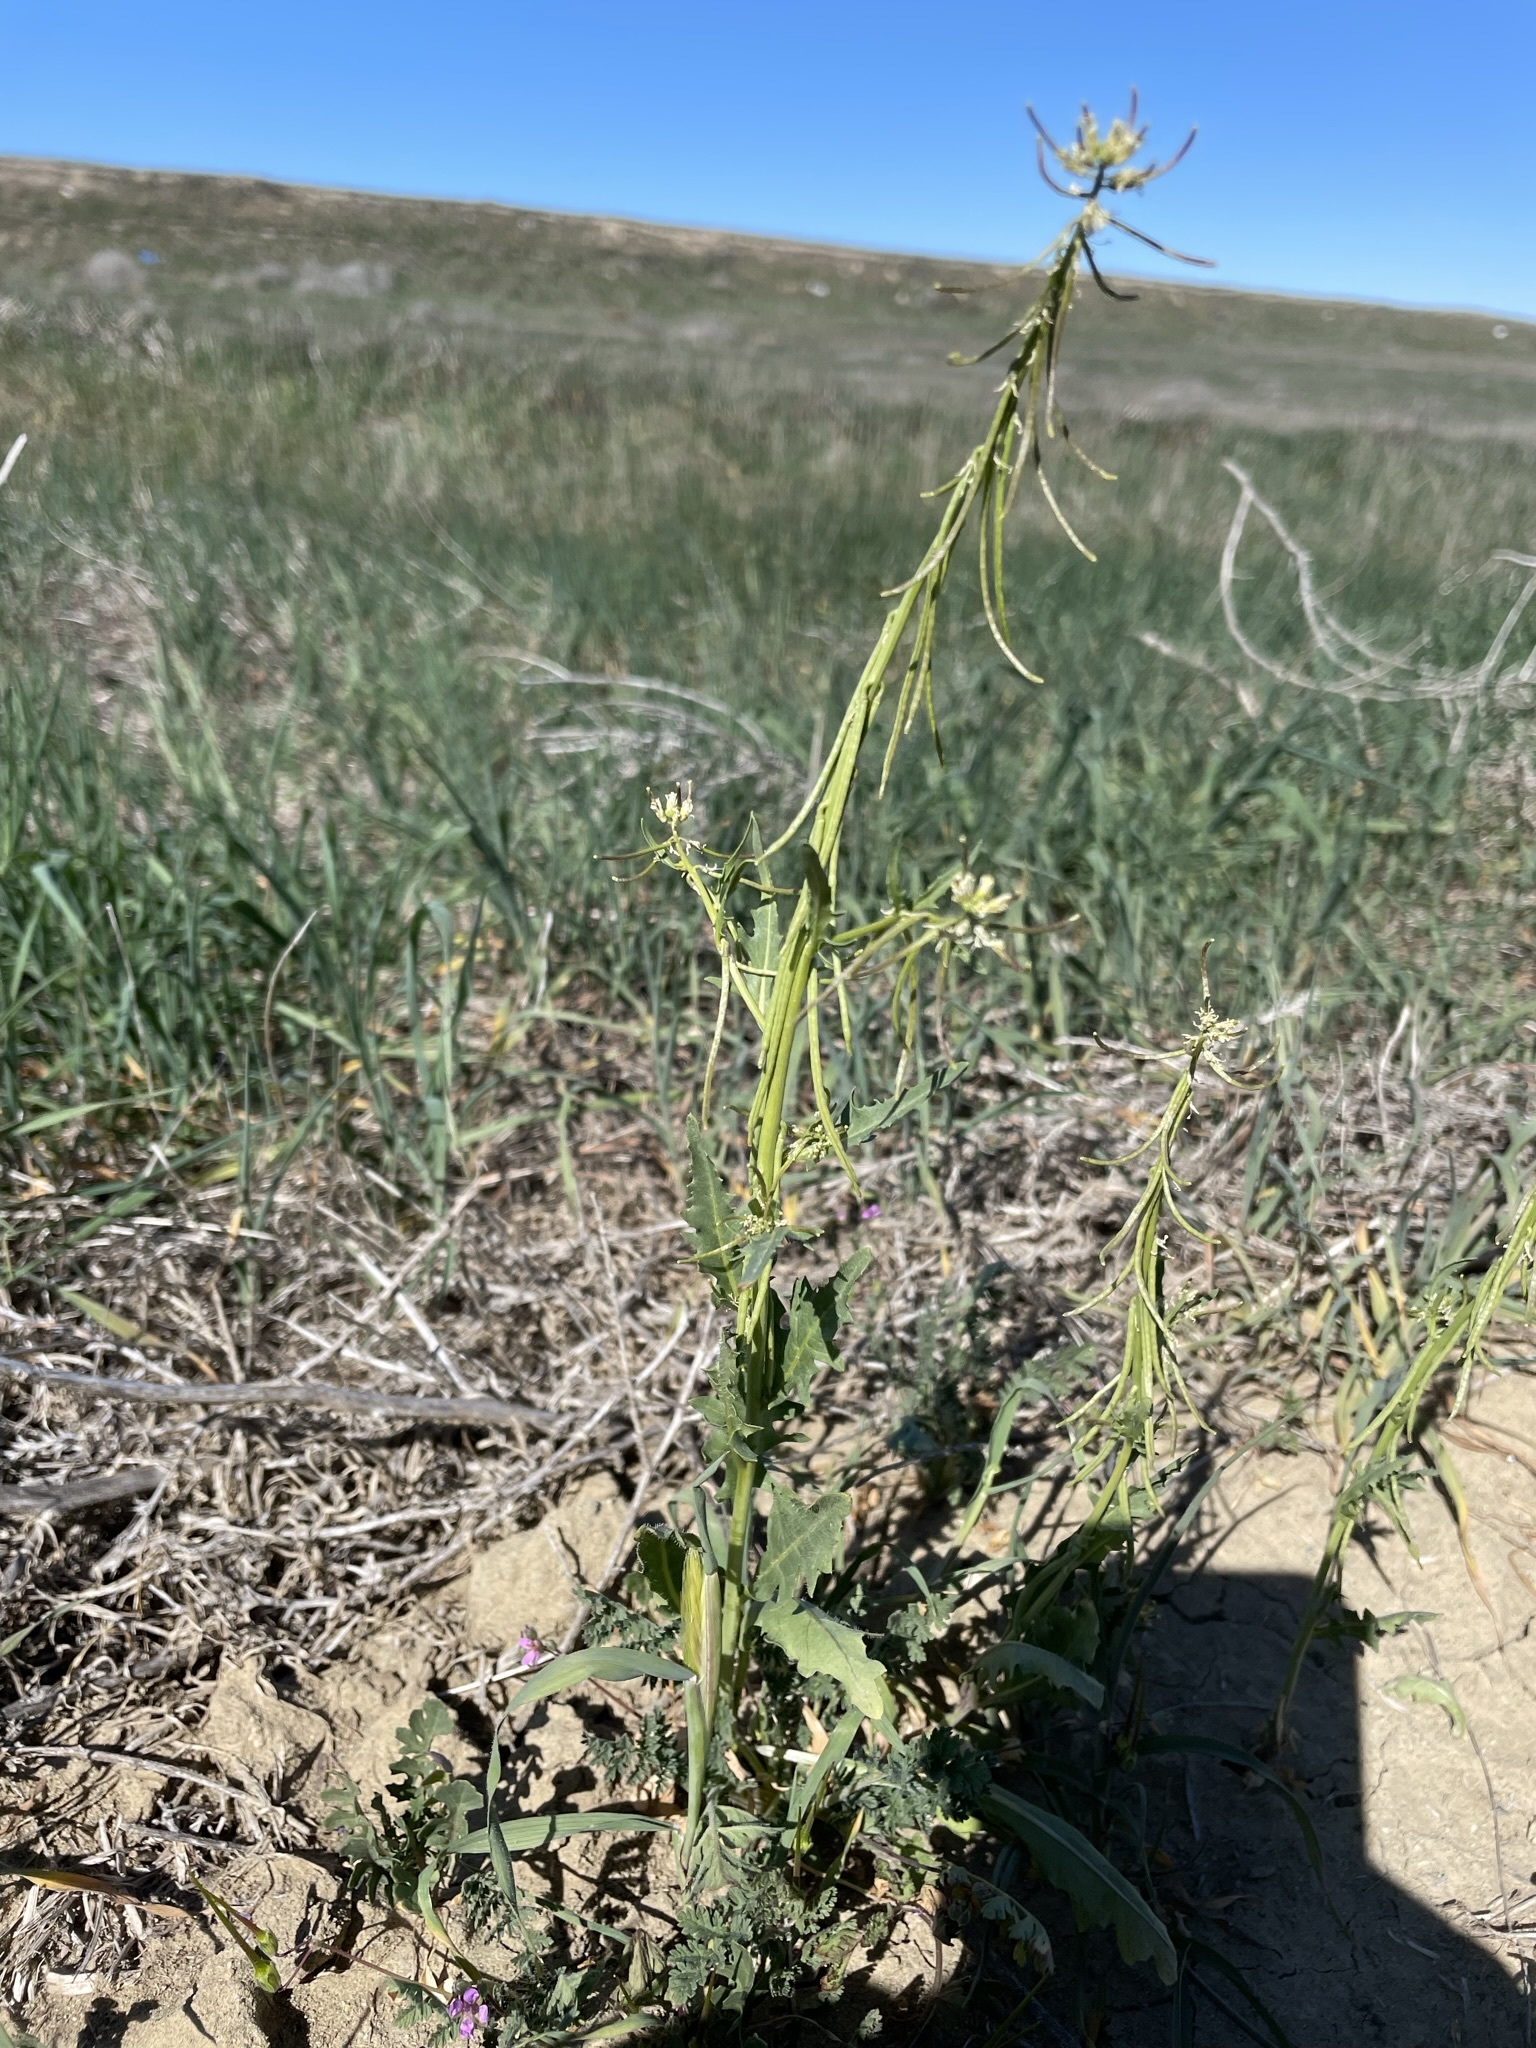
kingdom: Plantae
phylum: Tracheophyta
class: Magnoliopsida
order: Brassicales
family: Brassicaceae
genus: Streptanthus
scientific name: Streptanthus lasiophyllus
